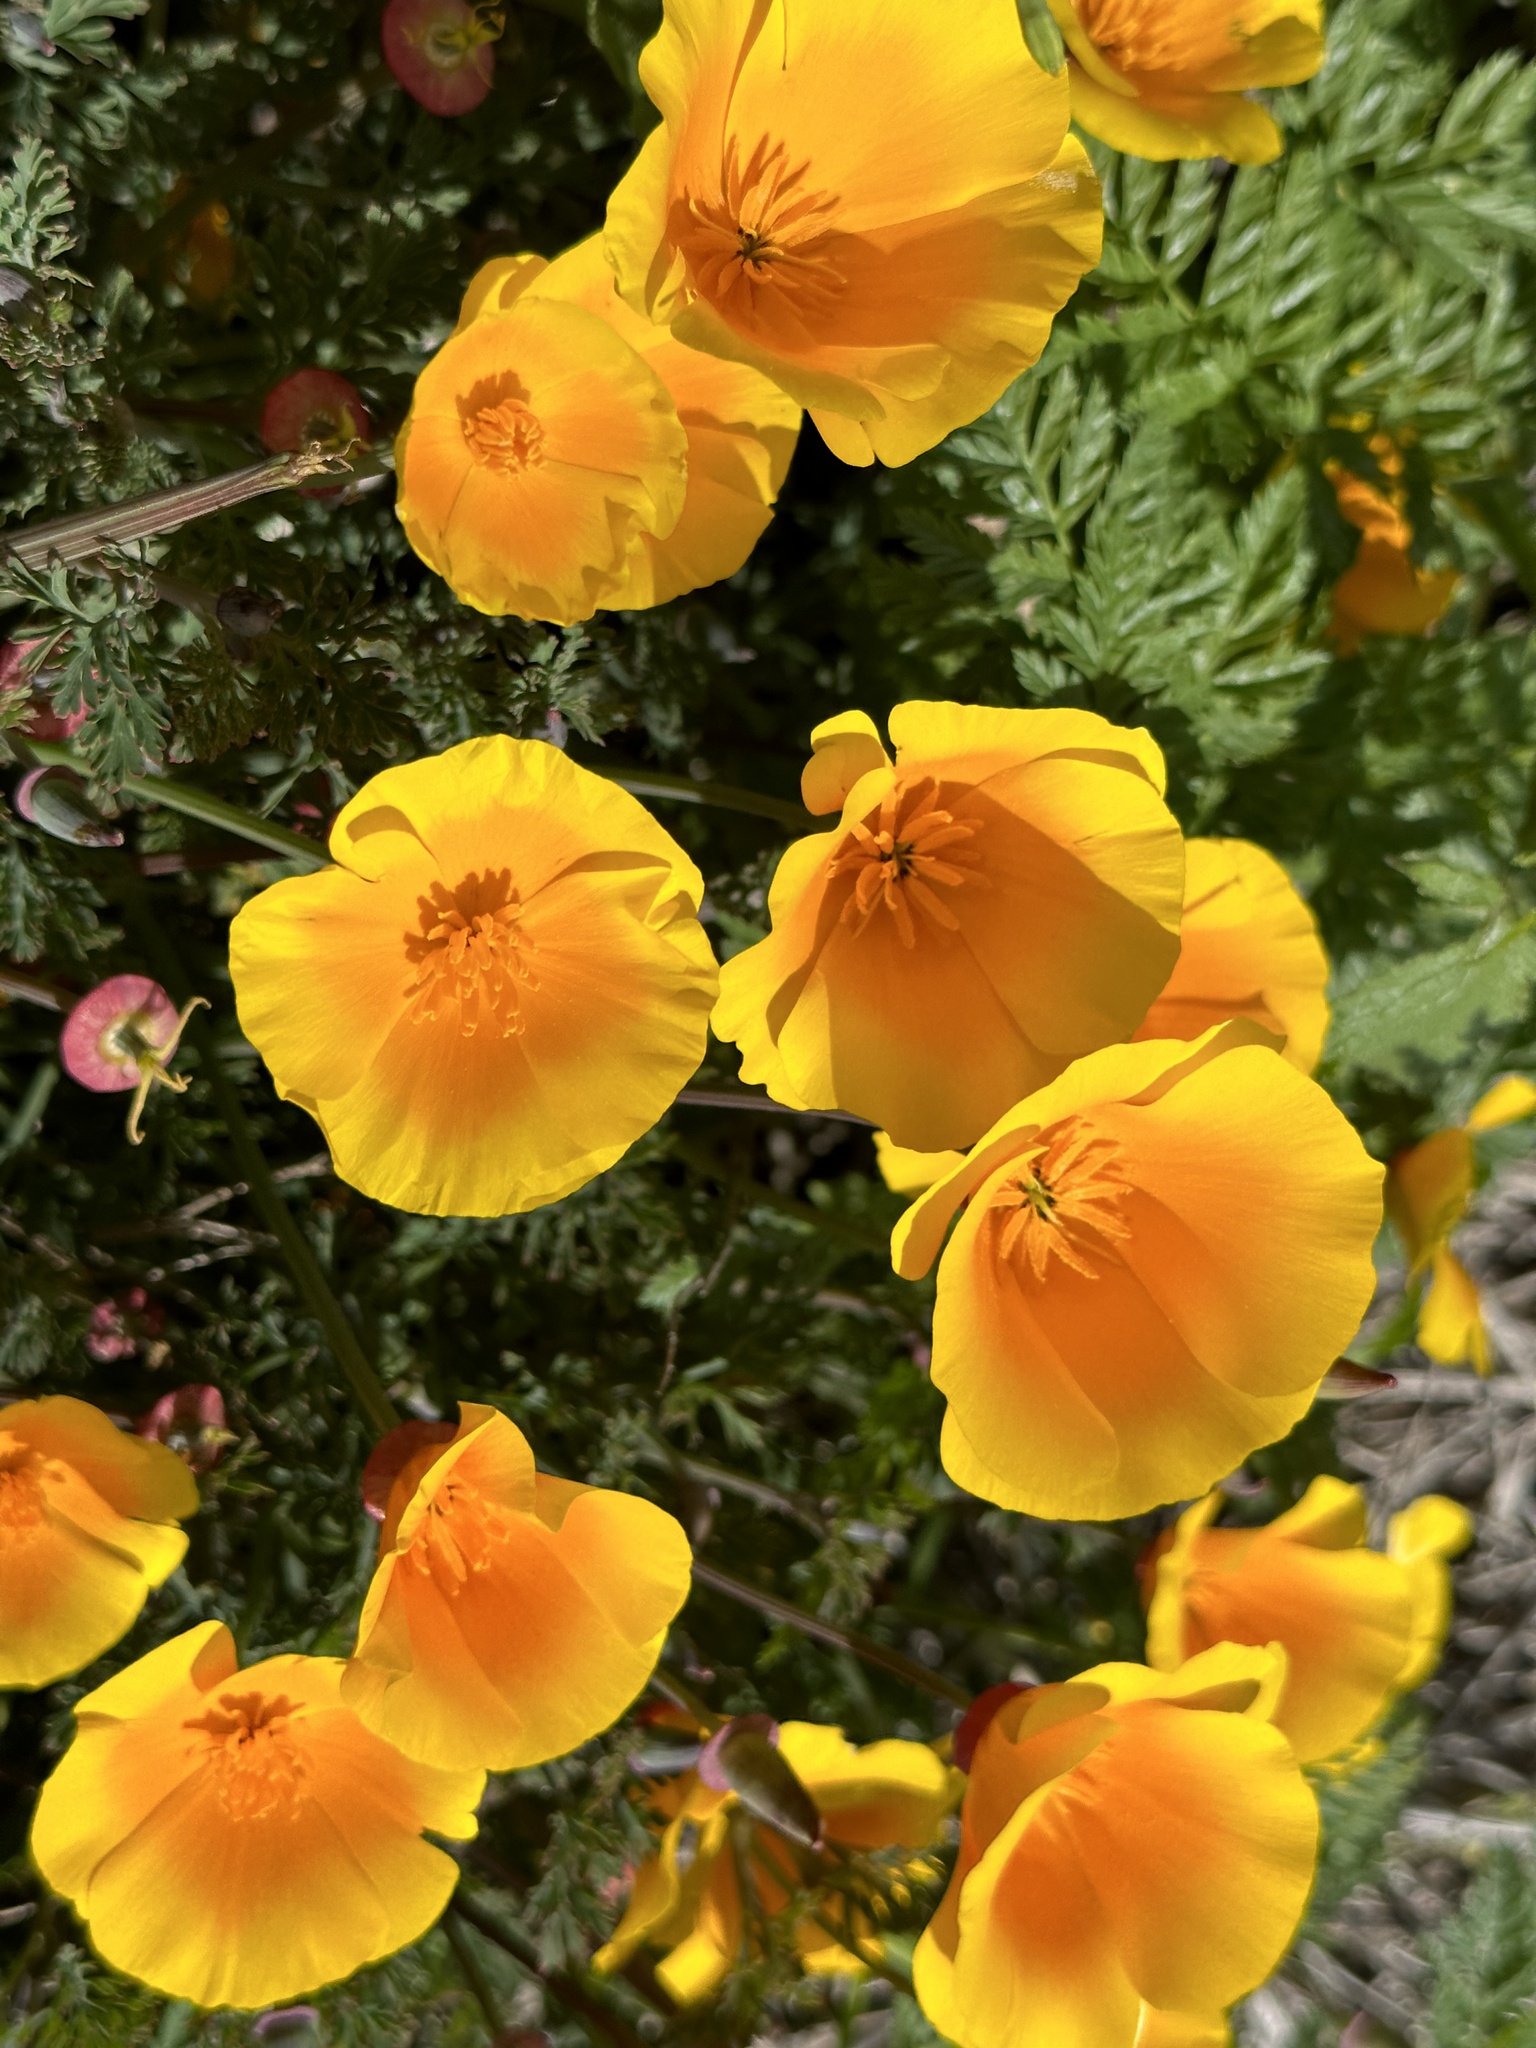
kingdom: Plantae
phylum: Tracheophyta
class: Magnoliopsida
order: Ranunculales
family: Papaveraceae
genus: Eschscholzia
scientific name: Eschscholzia californica
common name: California poppy
